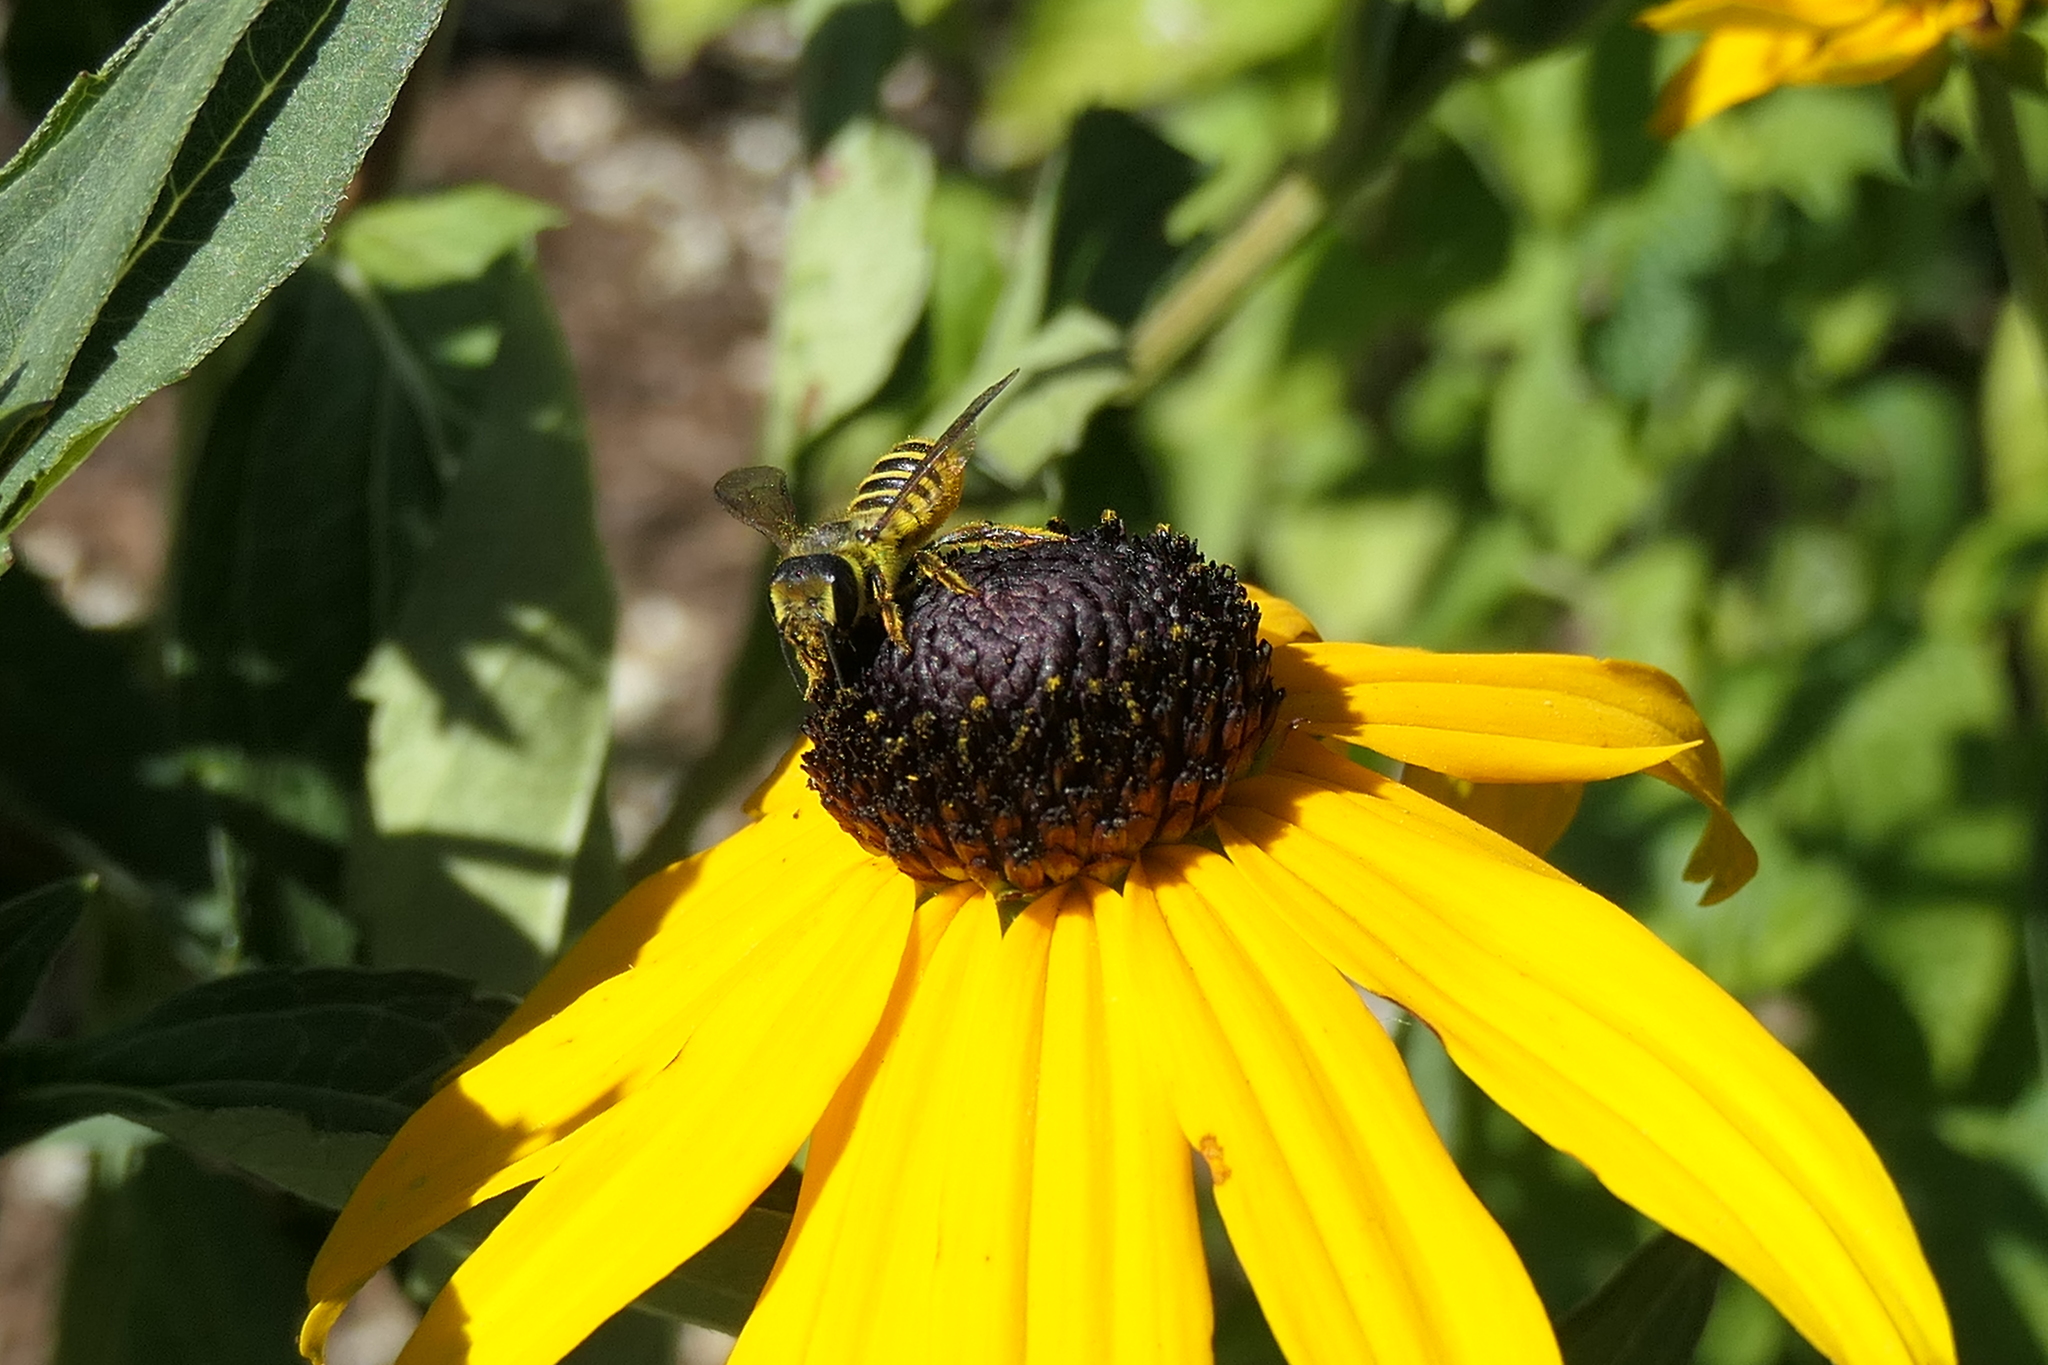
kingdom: Animalia
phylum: Arthropoda
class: Insecta
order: Hymenoptera
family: Megachilidae
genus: Megachile
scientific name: Megachile fidelis
